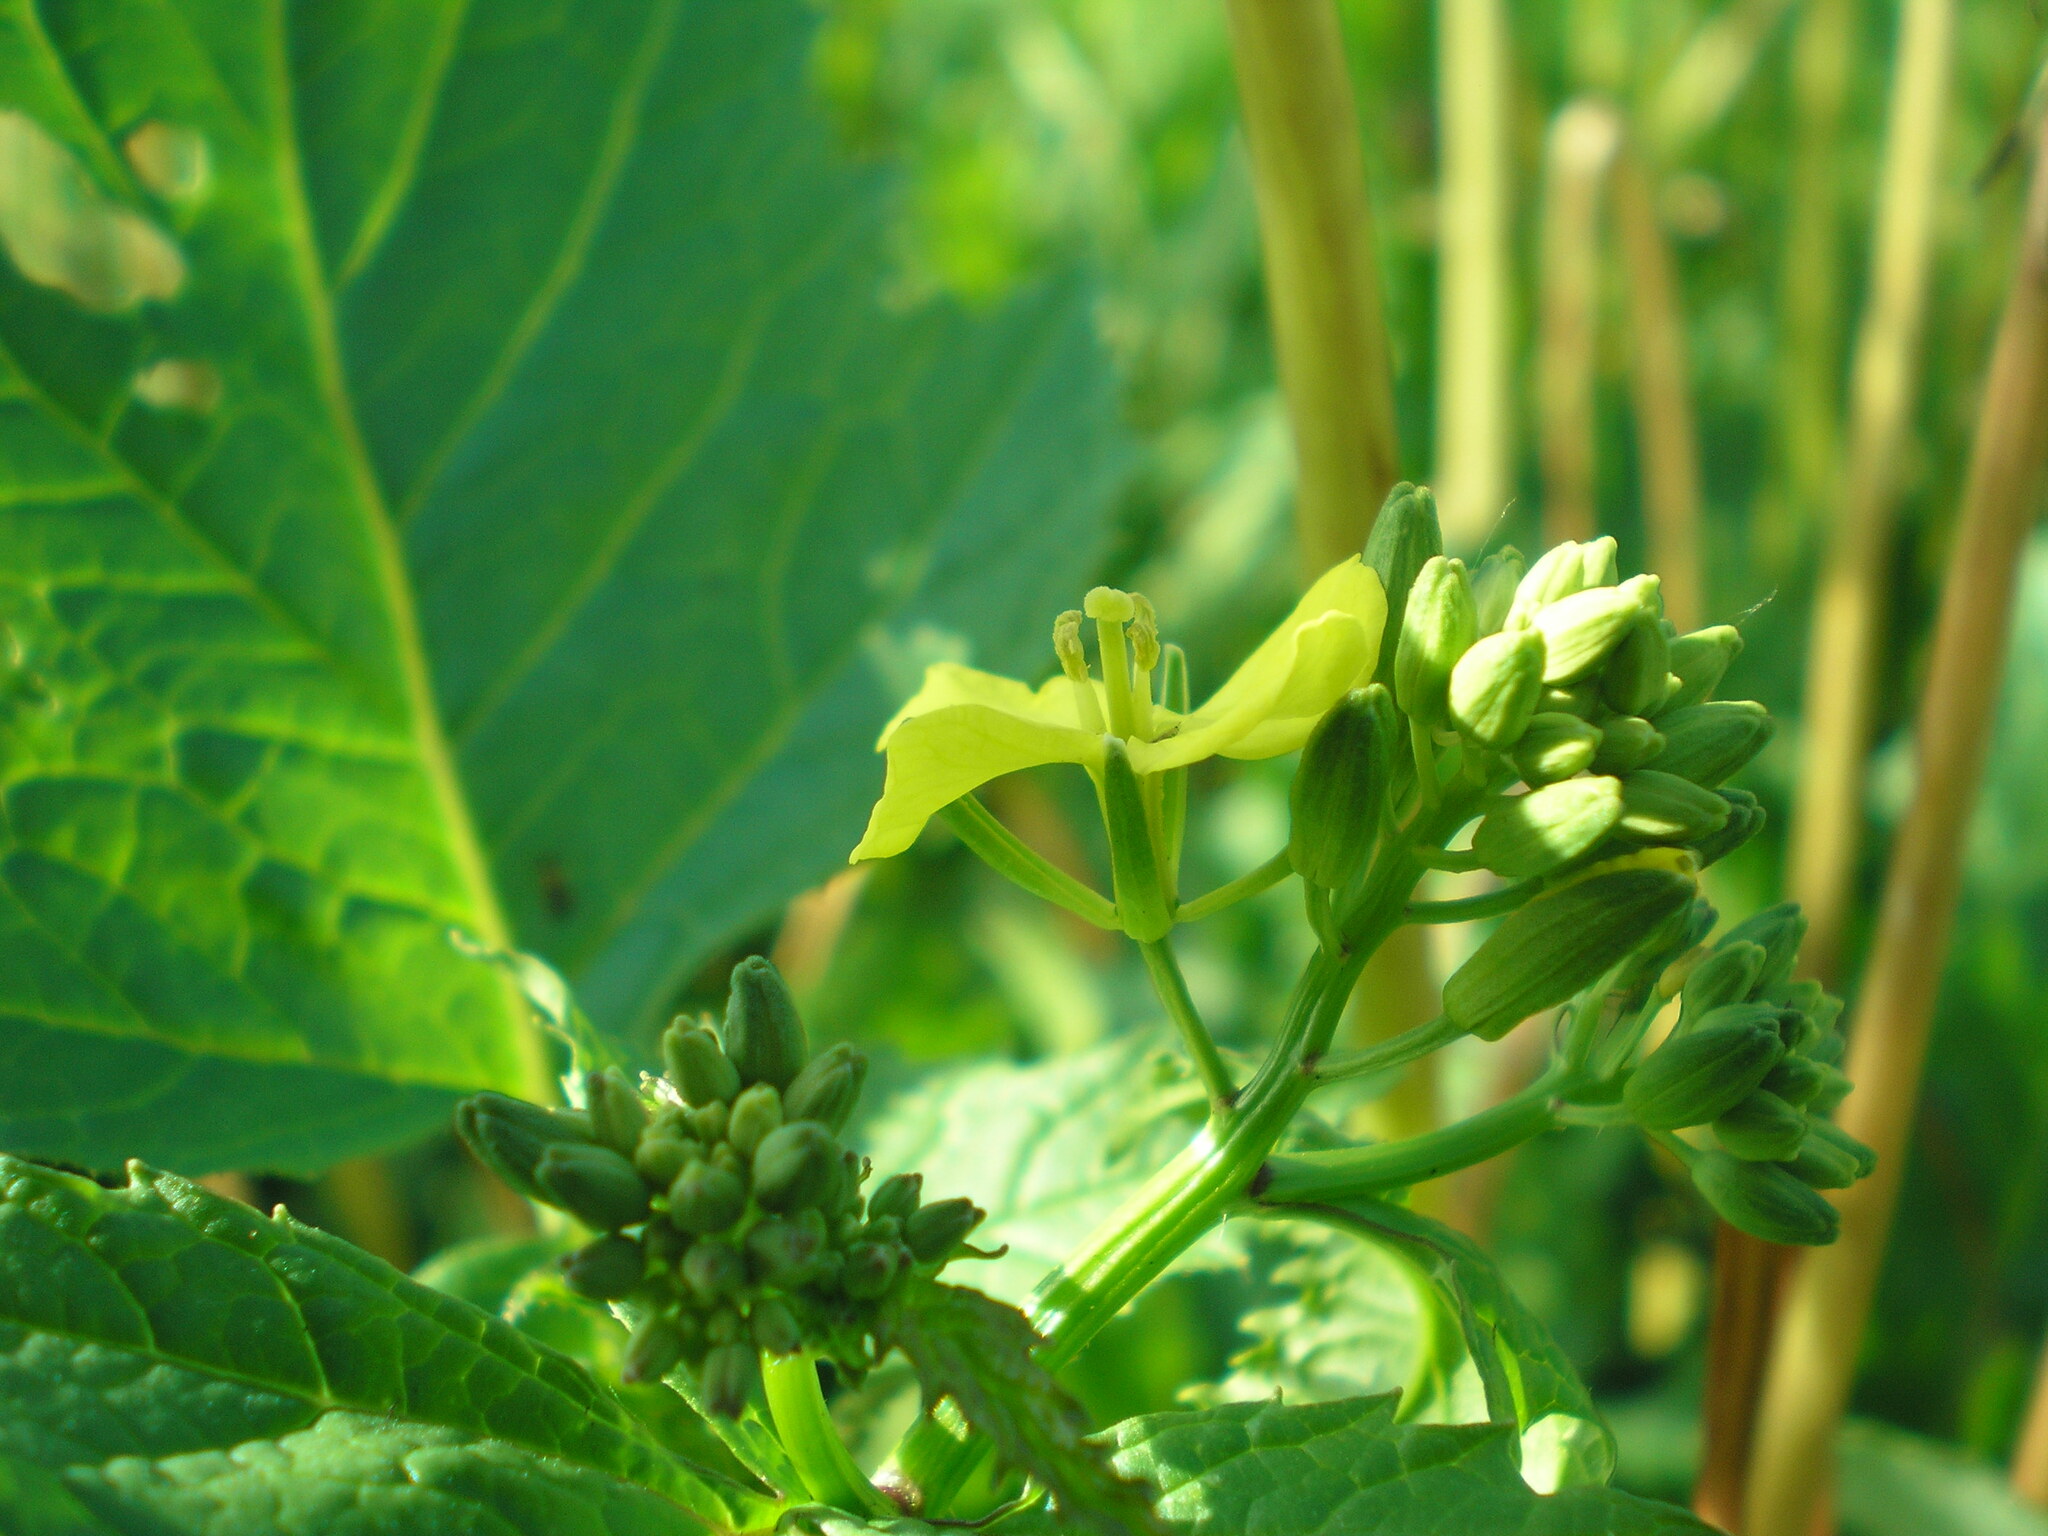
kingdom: Plantae
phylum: Tracheophyta
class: Magnoliopsida
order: Brassicales
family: Brassicaceae
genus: Sinapis
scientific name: Sinapis arvensis
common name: Charlock
